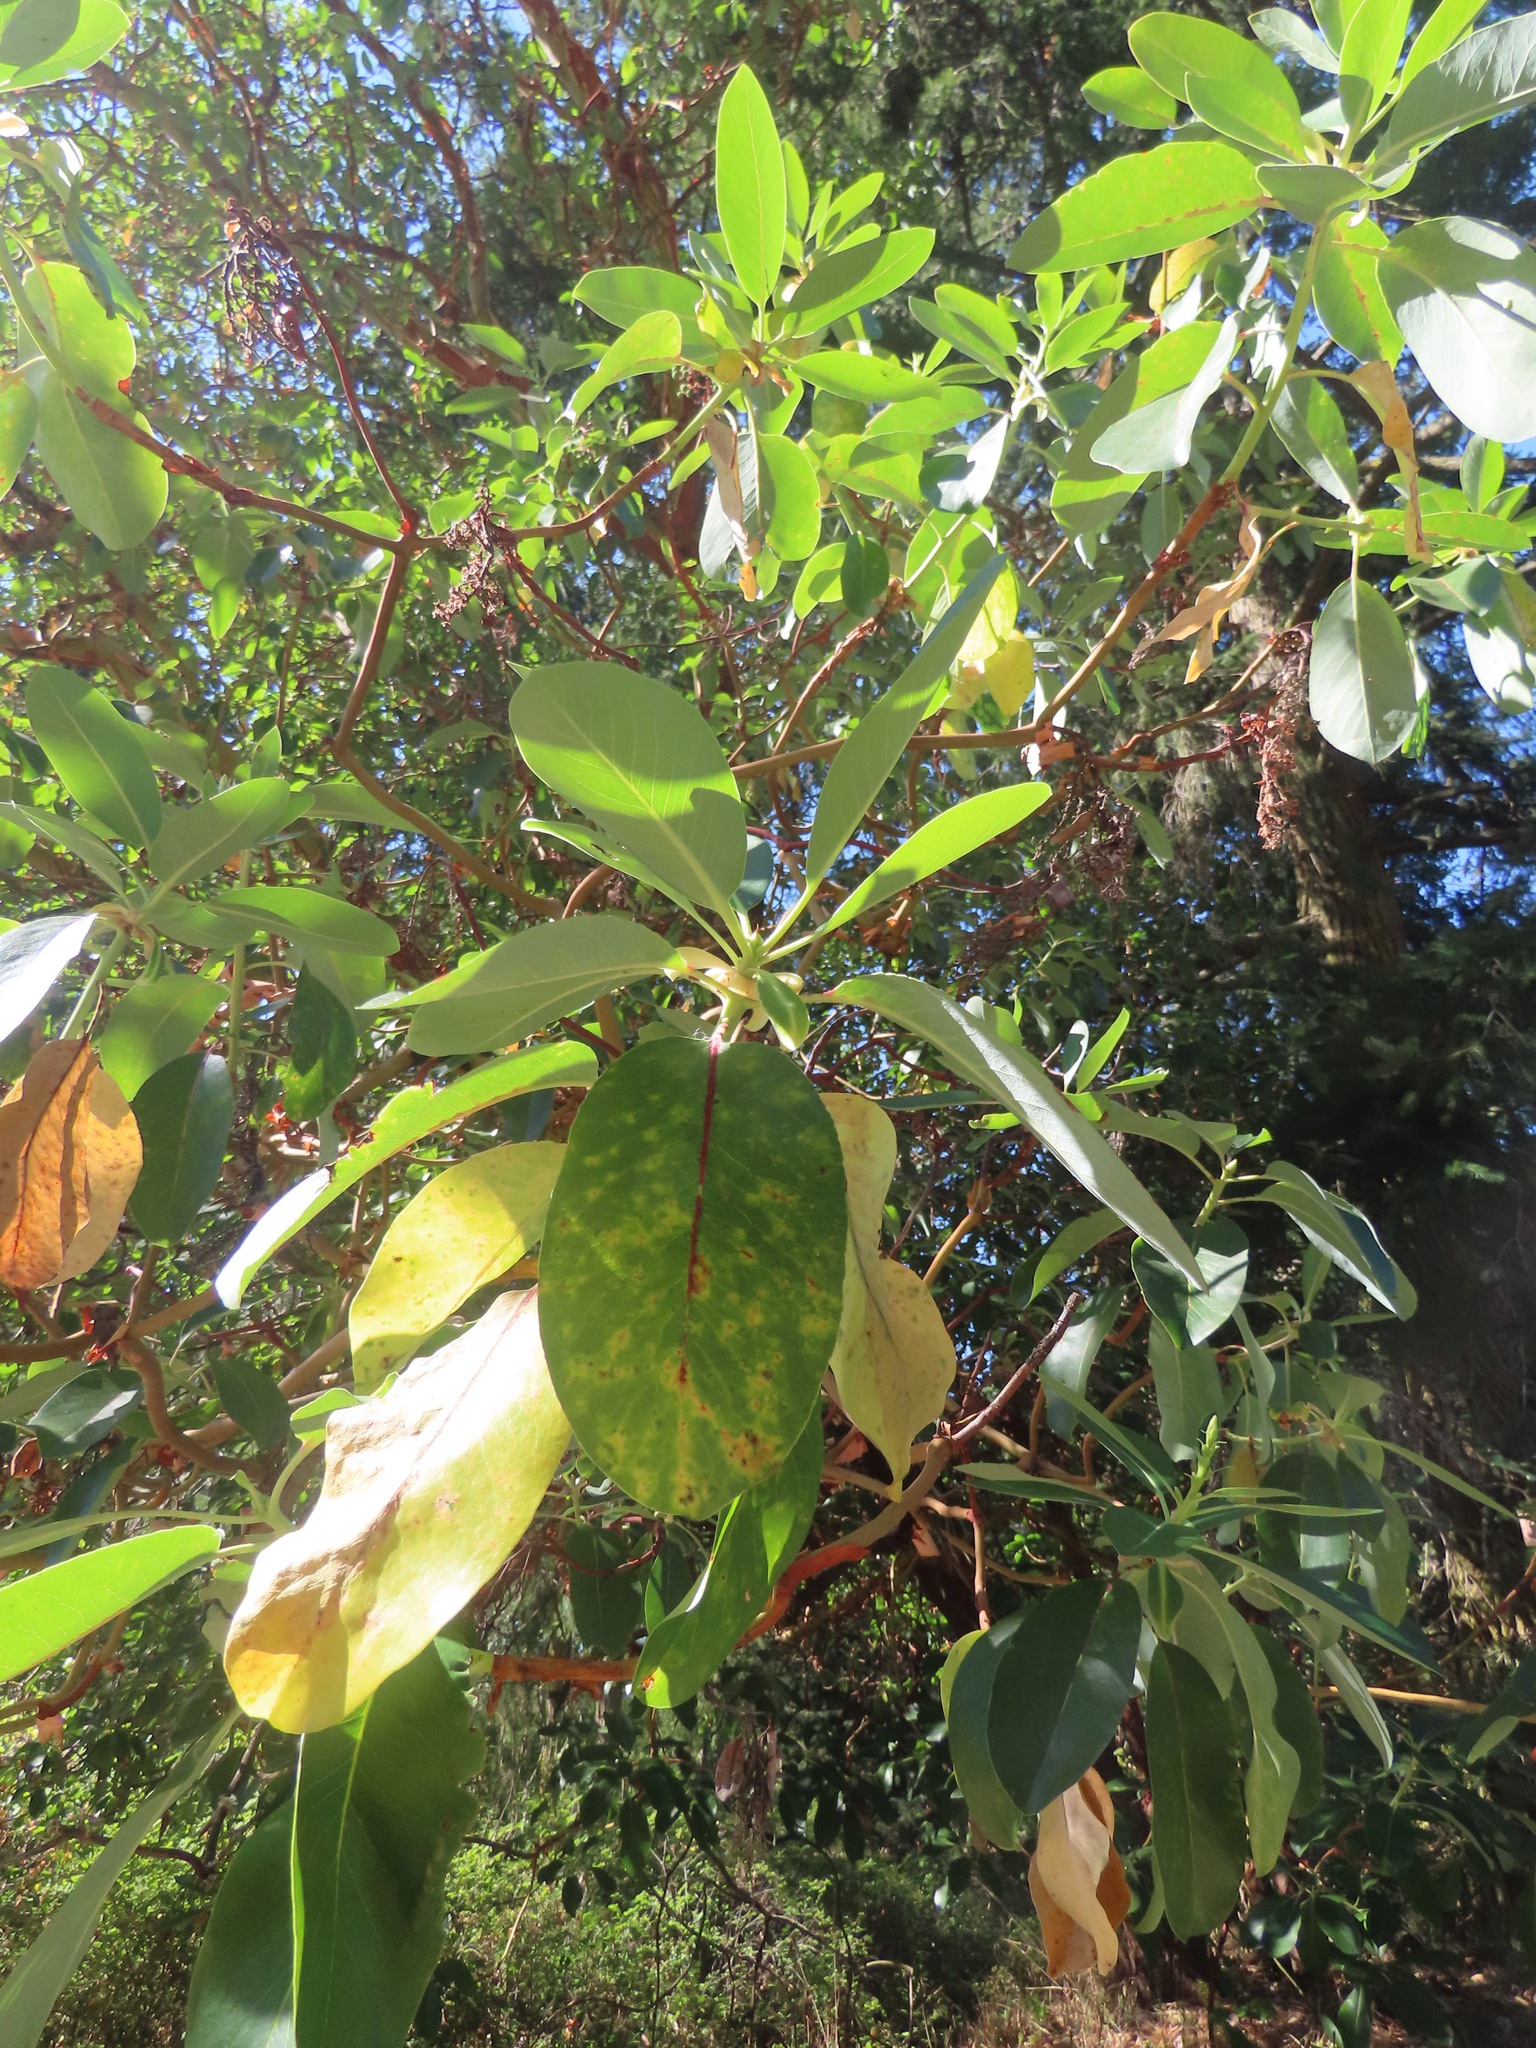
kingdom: Plantae
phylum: Tracheophyta
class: Magnoliopsida
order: Ericales
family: Ericaceae
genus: Arbutus
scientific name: Arbutus menziesii
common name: Pacific madrone
